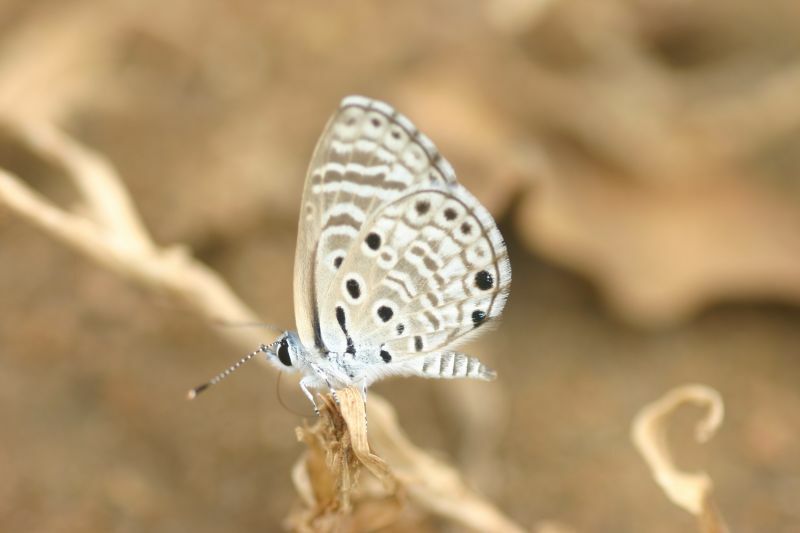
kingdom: Animalia
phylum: Arthropoda
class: Insecta
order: Lepidoptera
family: Lycaenidae
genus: Azanus
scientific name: Azanus jesous
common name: African babul blue
